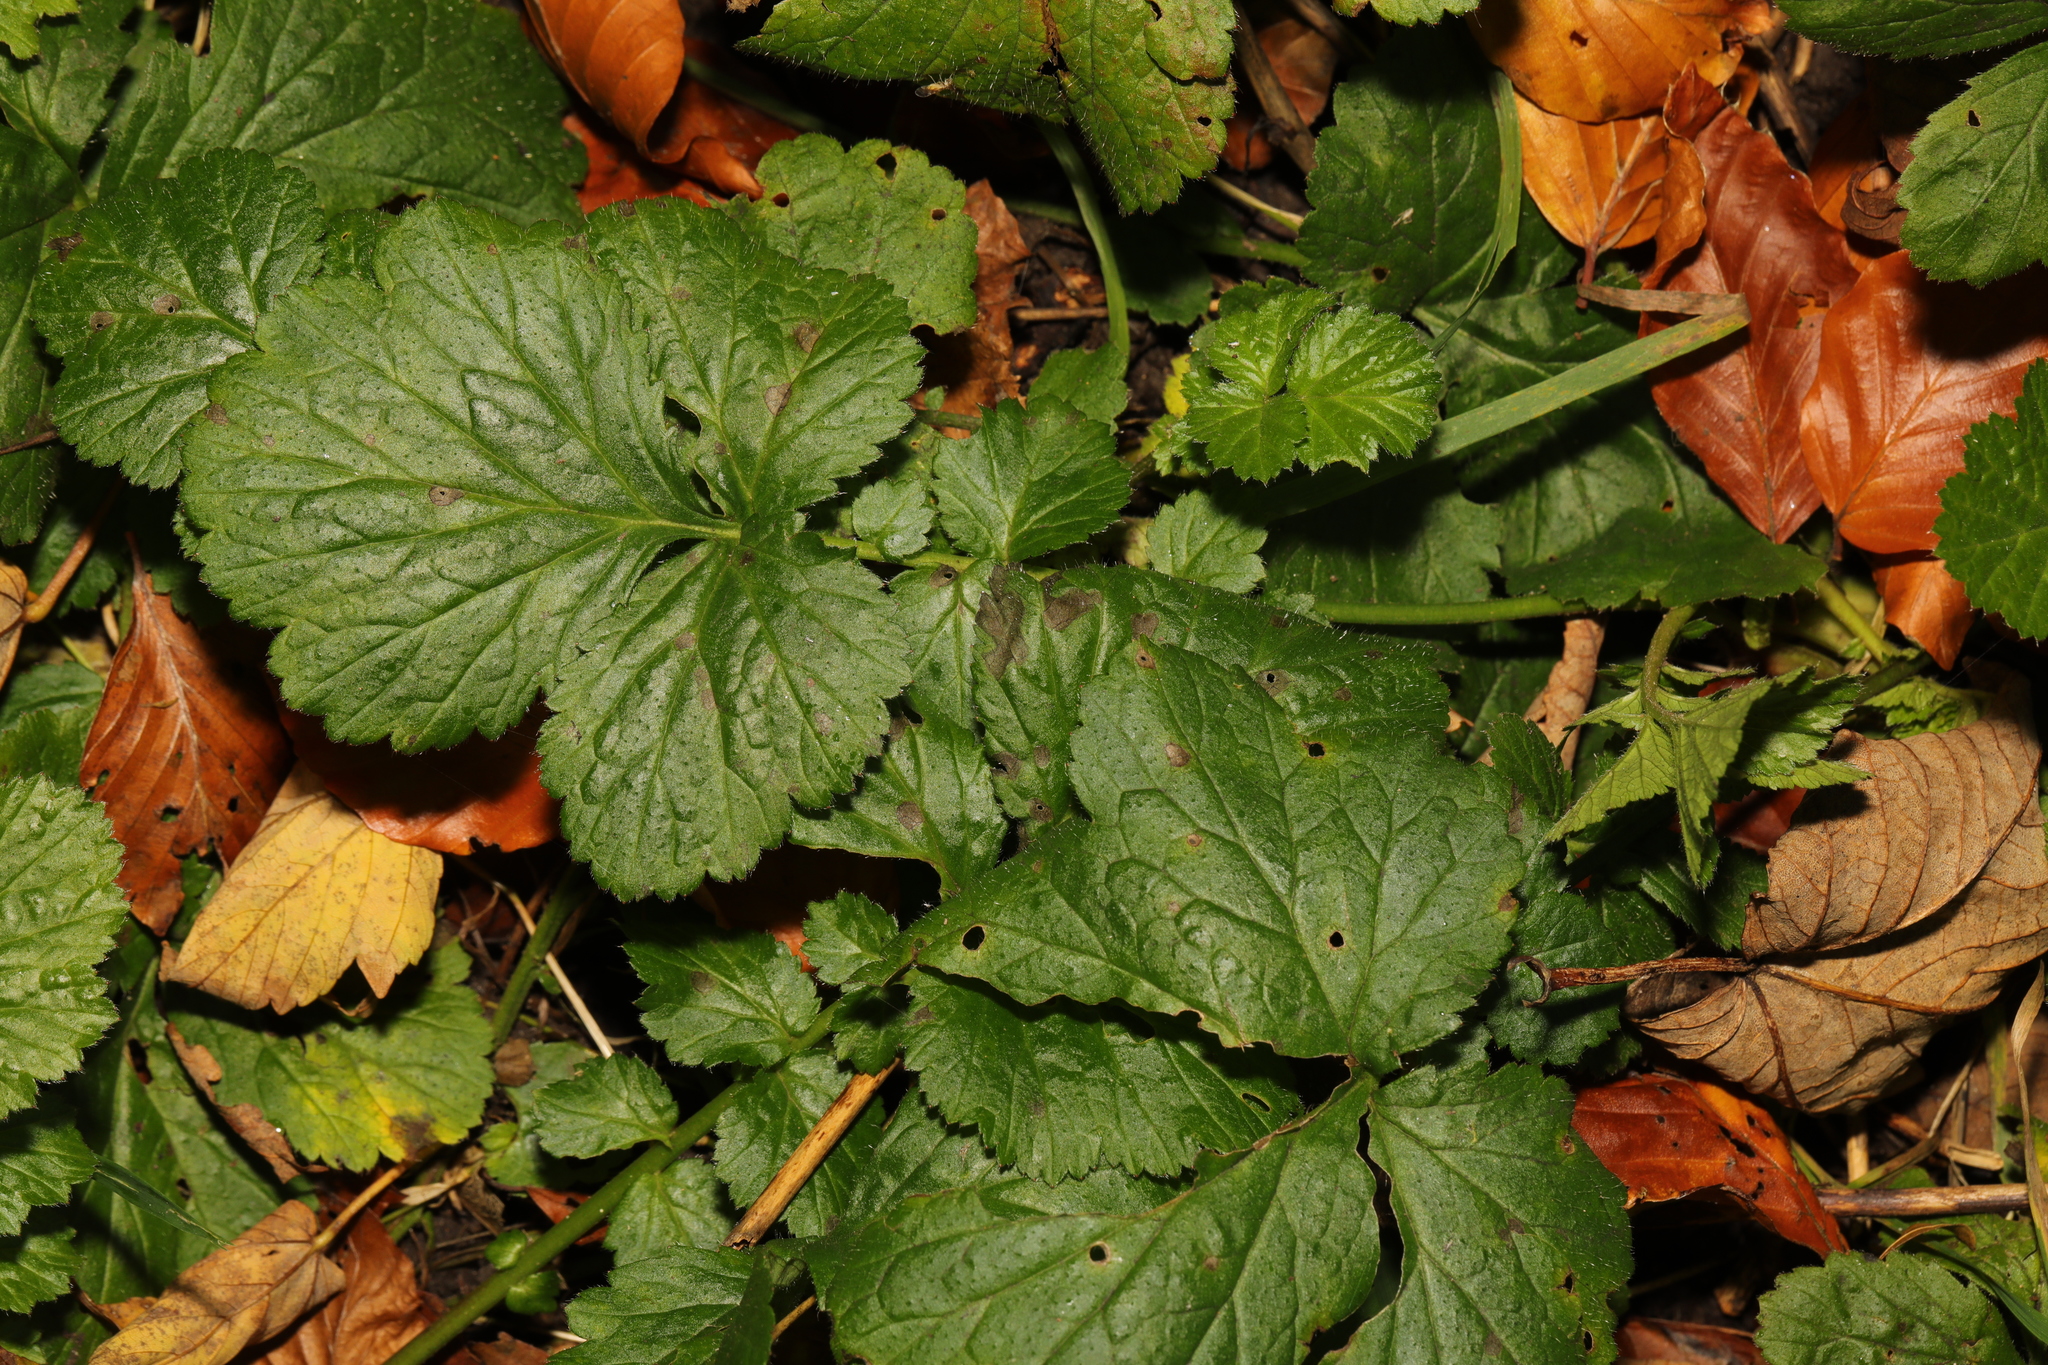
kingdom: Plantae
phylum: Tracheophyta
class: Magnoliopsida
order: Rosales
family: Rosaceae
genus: Geum
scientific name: Geum urbanum
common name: Wood avens
